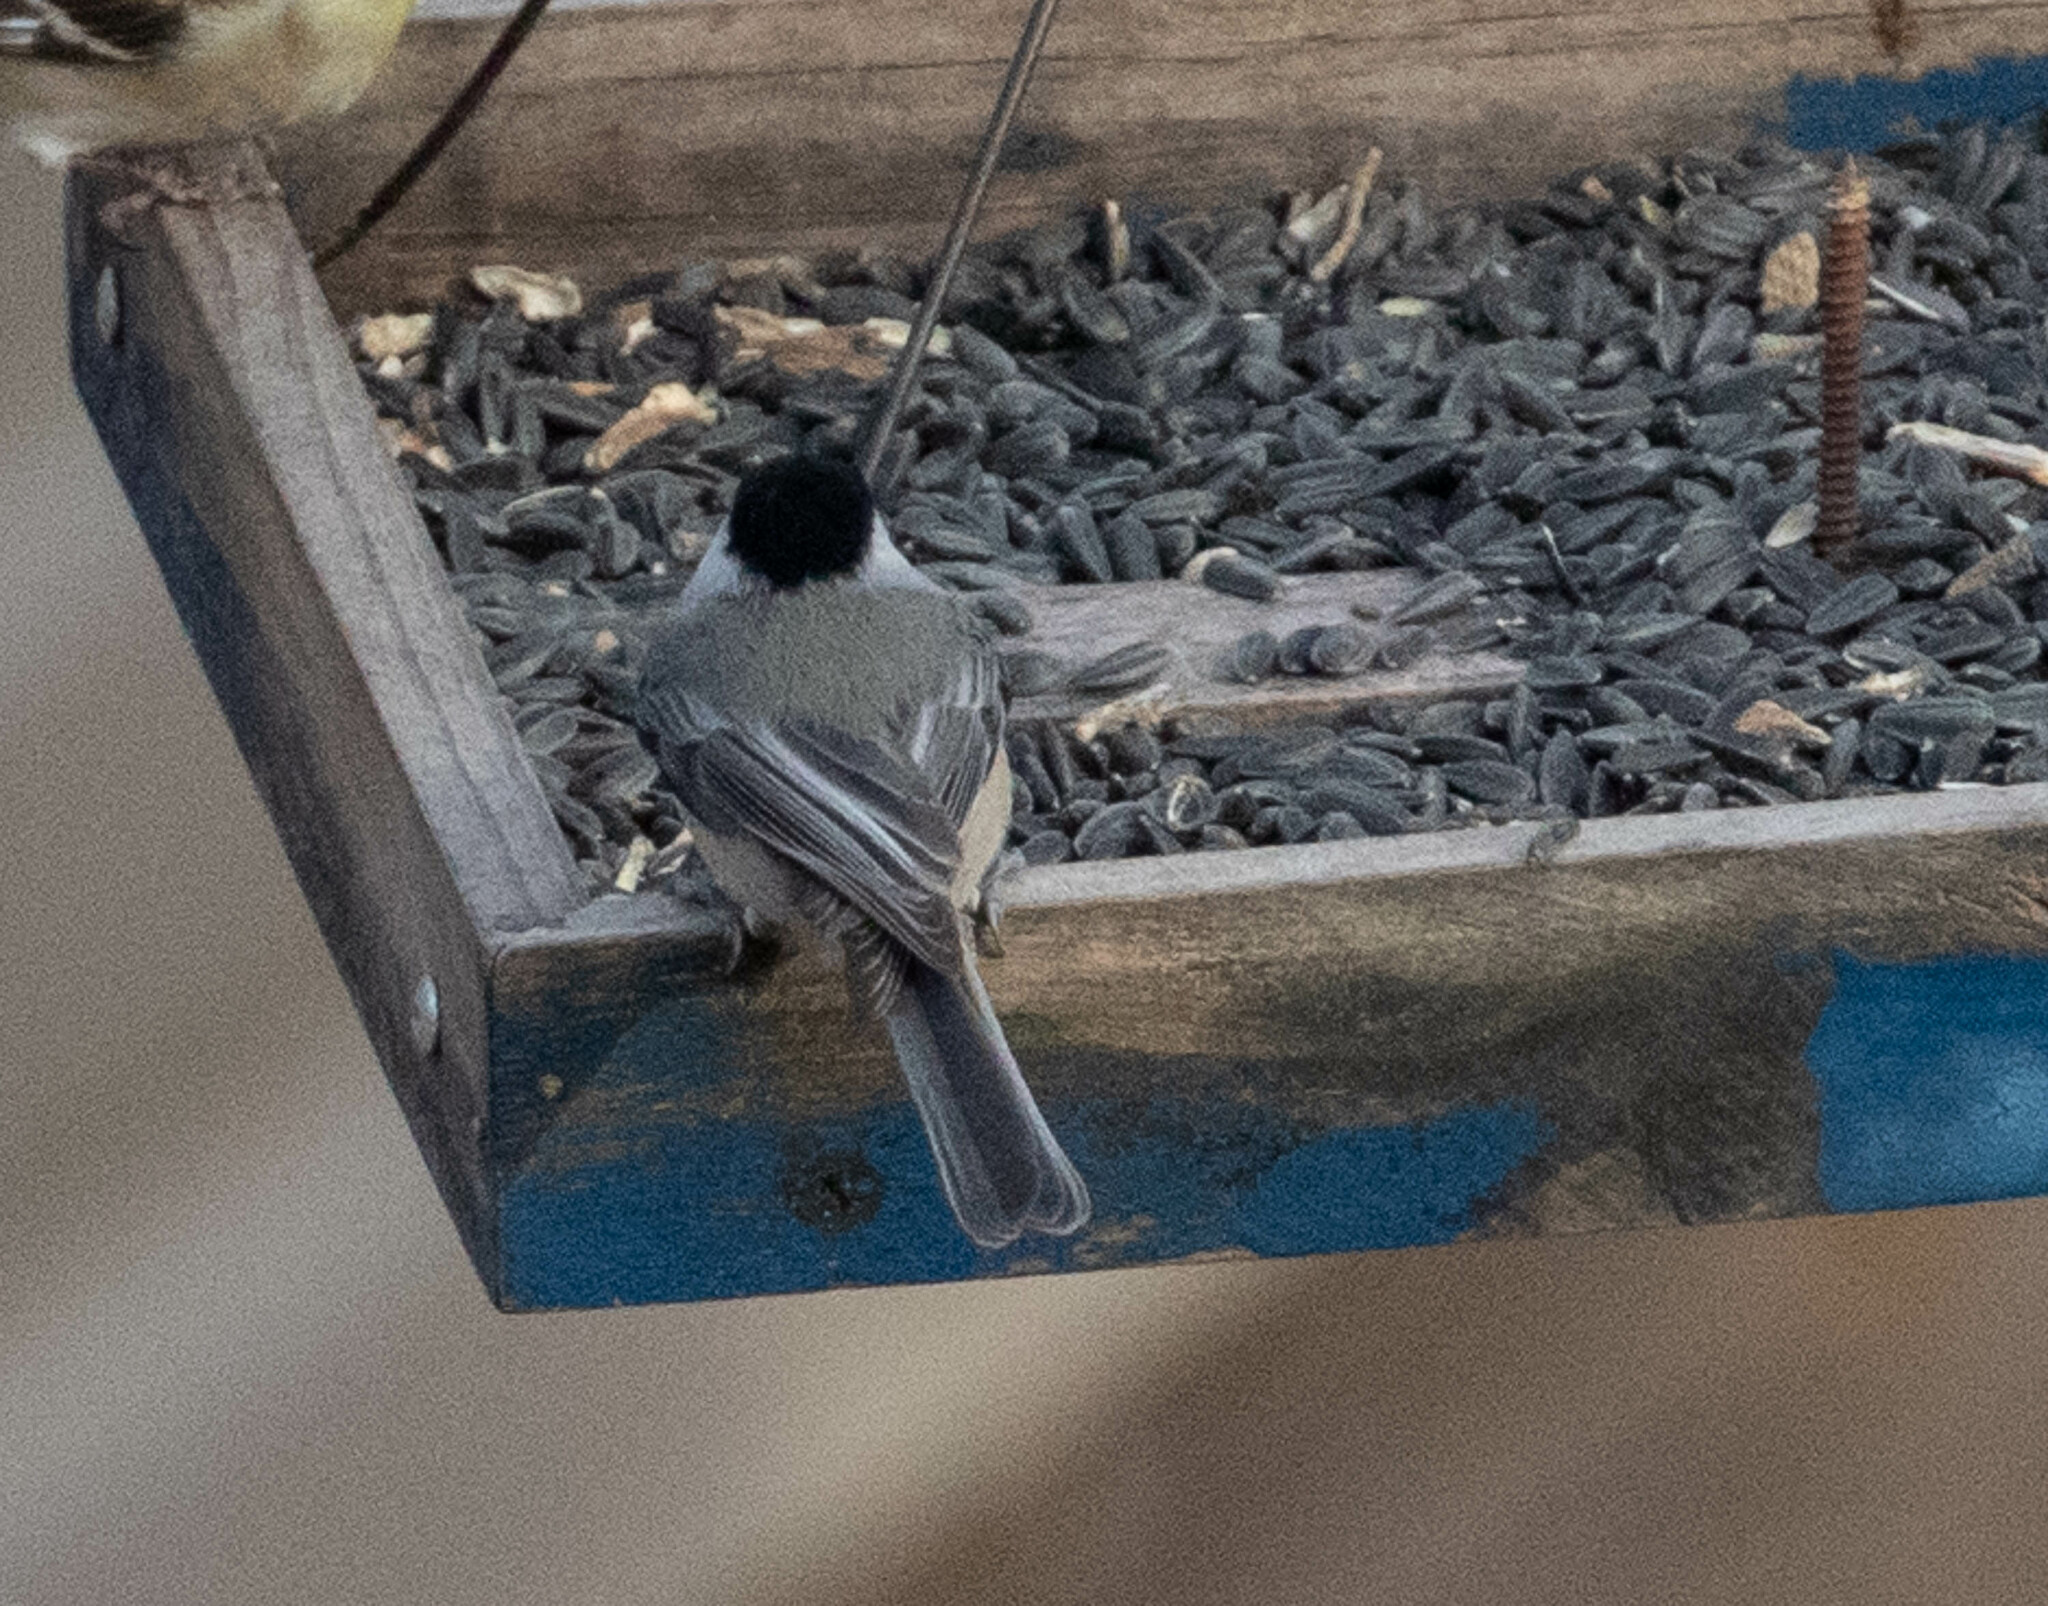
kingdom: Animalia
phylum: Chordata
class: Aves
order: Passeriformes
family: Paridae
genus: Poecile
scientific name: Poecile carolinensis
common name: Carolina chickadee
